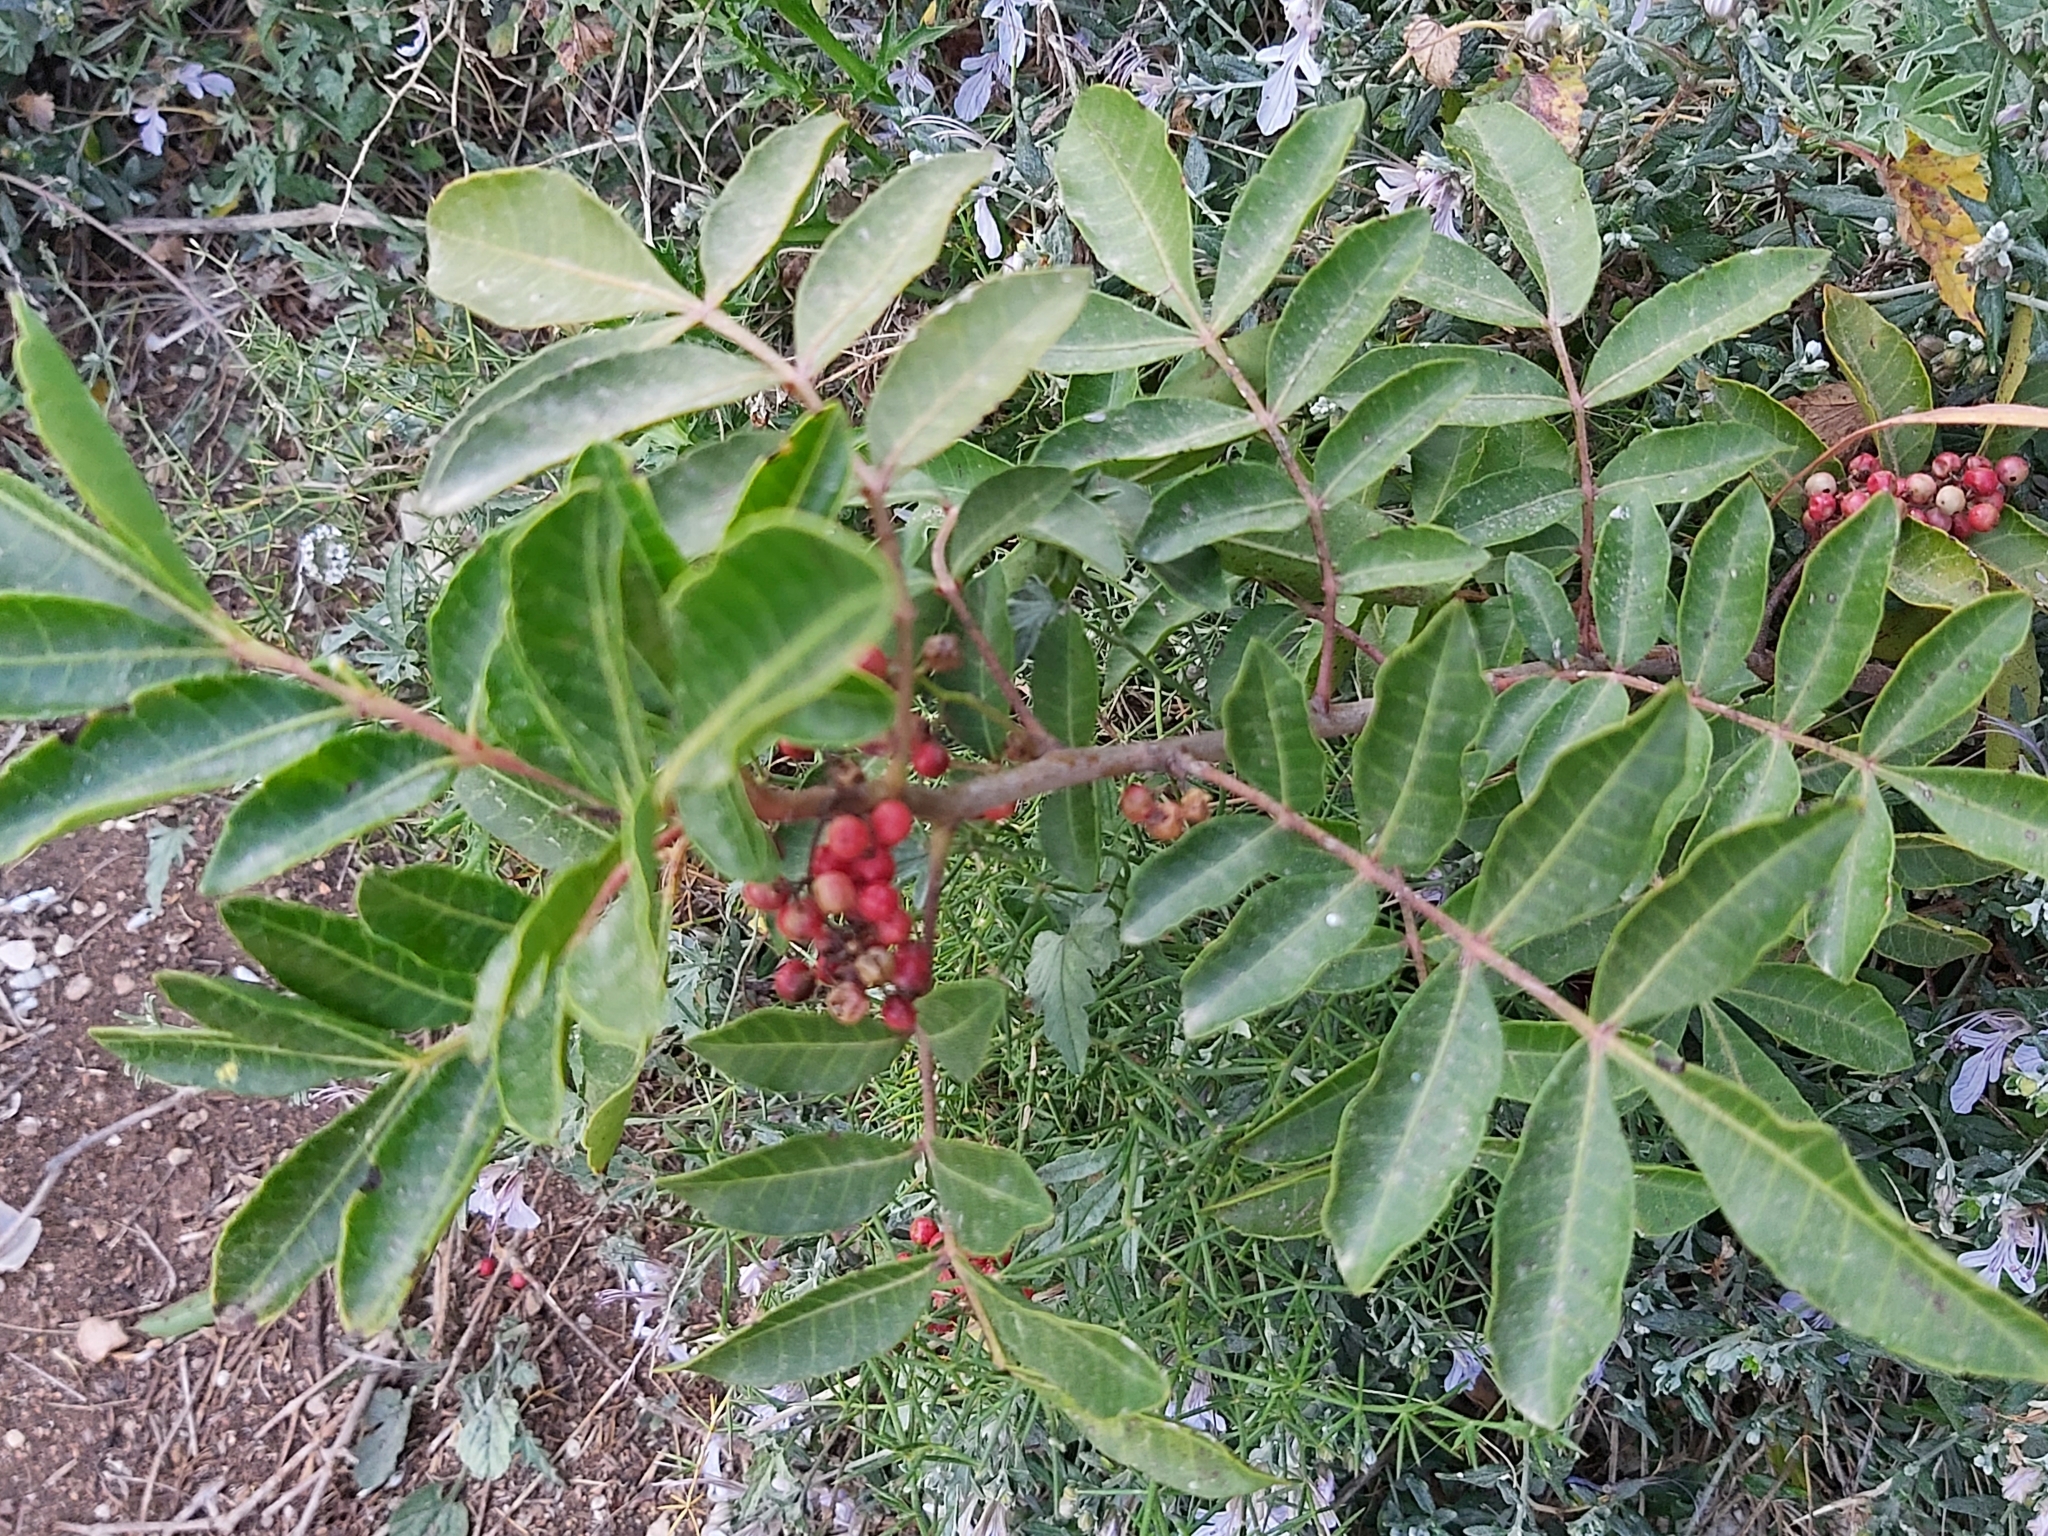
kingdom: Plantae
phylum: Tracheophyta
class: Magnoliopsida
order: Sapindales
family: Anacardiaceae
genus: Pistacia
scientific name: Pistacia lentiscus
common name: Lentisk
